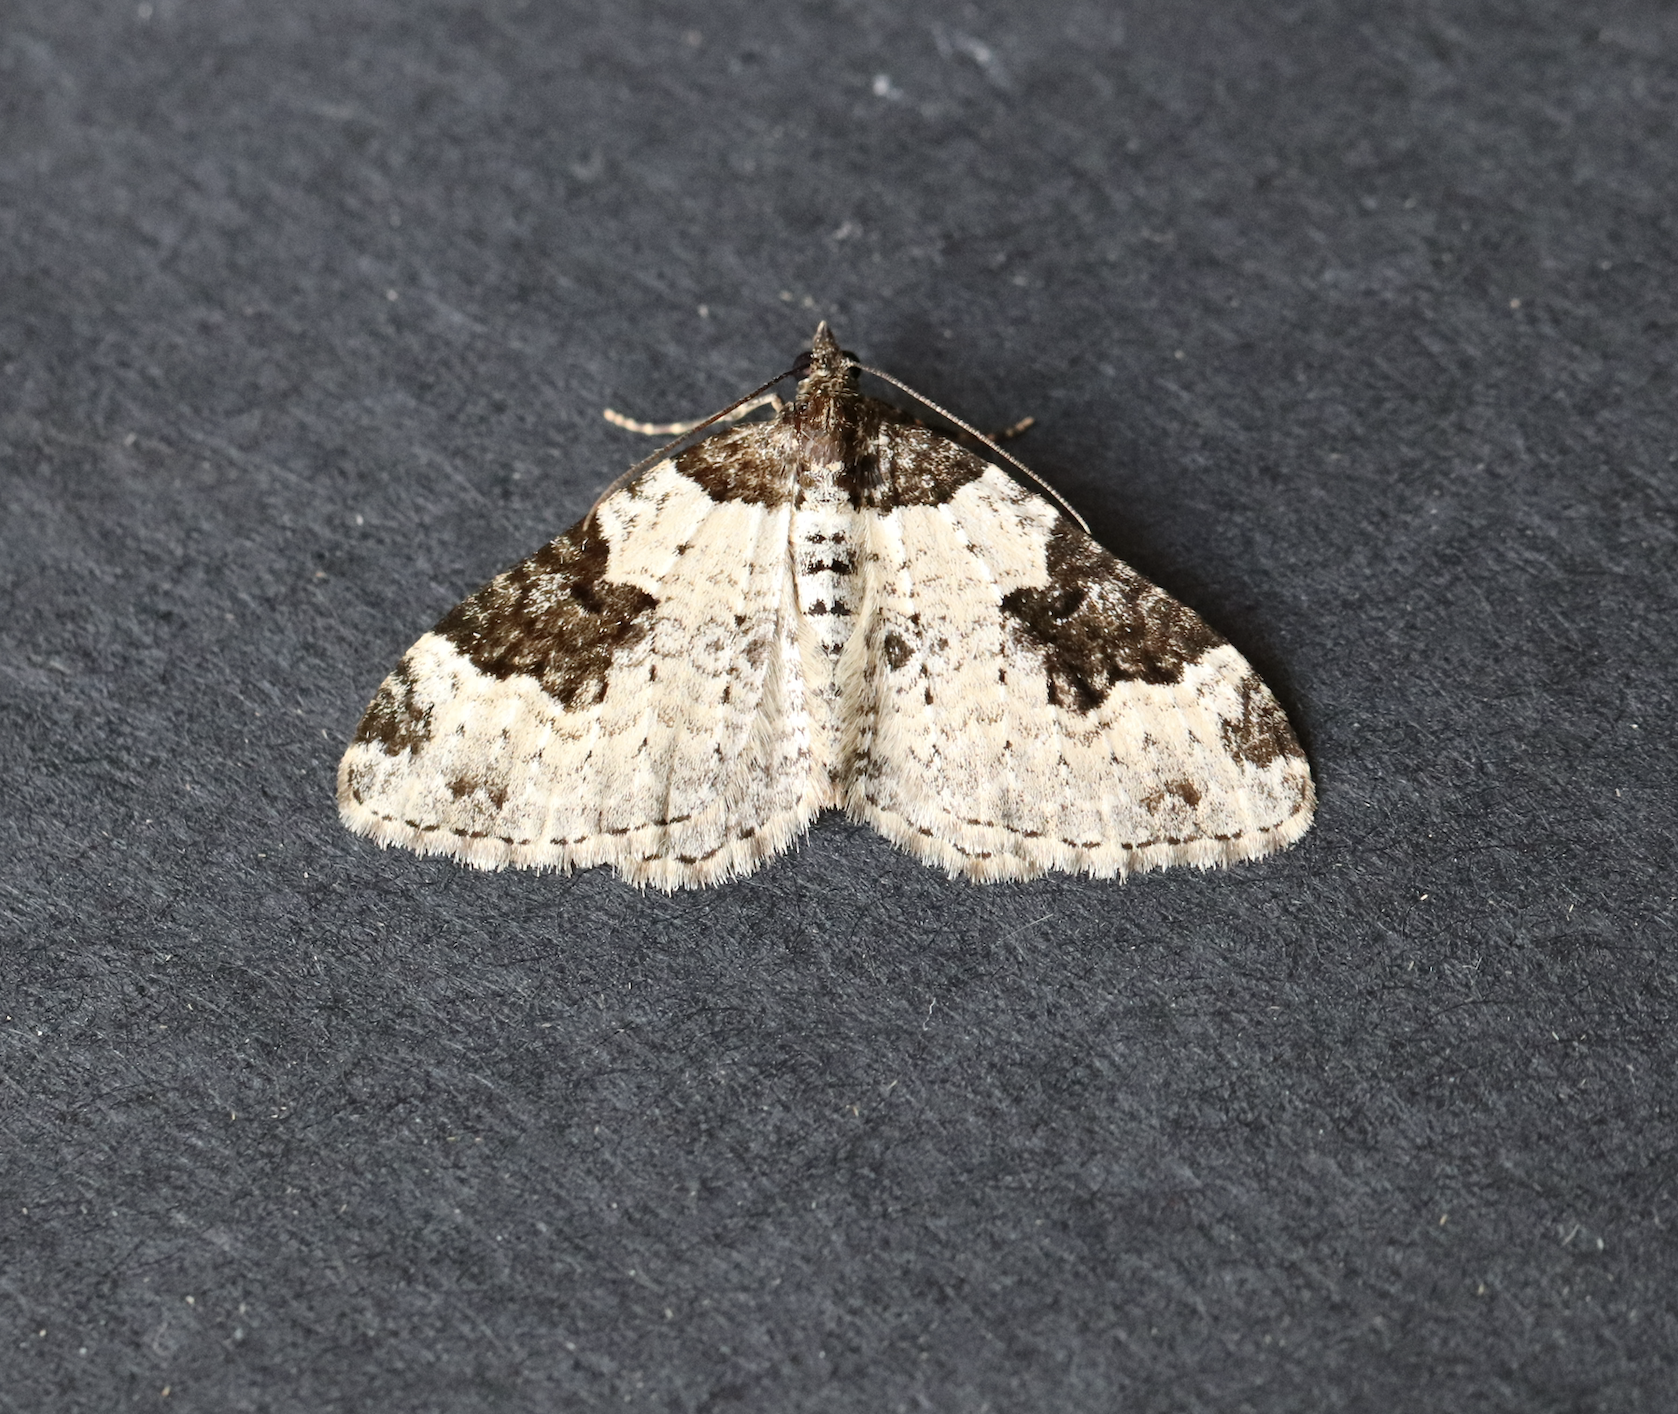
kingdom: Animalia
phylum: Arthropoda
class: Insecta
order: Lepidoptera
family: Geometridae
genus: Xanthorhoe
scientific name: Xanthorhoe fluctuata
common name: Garden carpet
